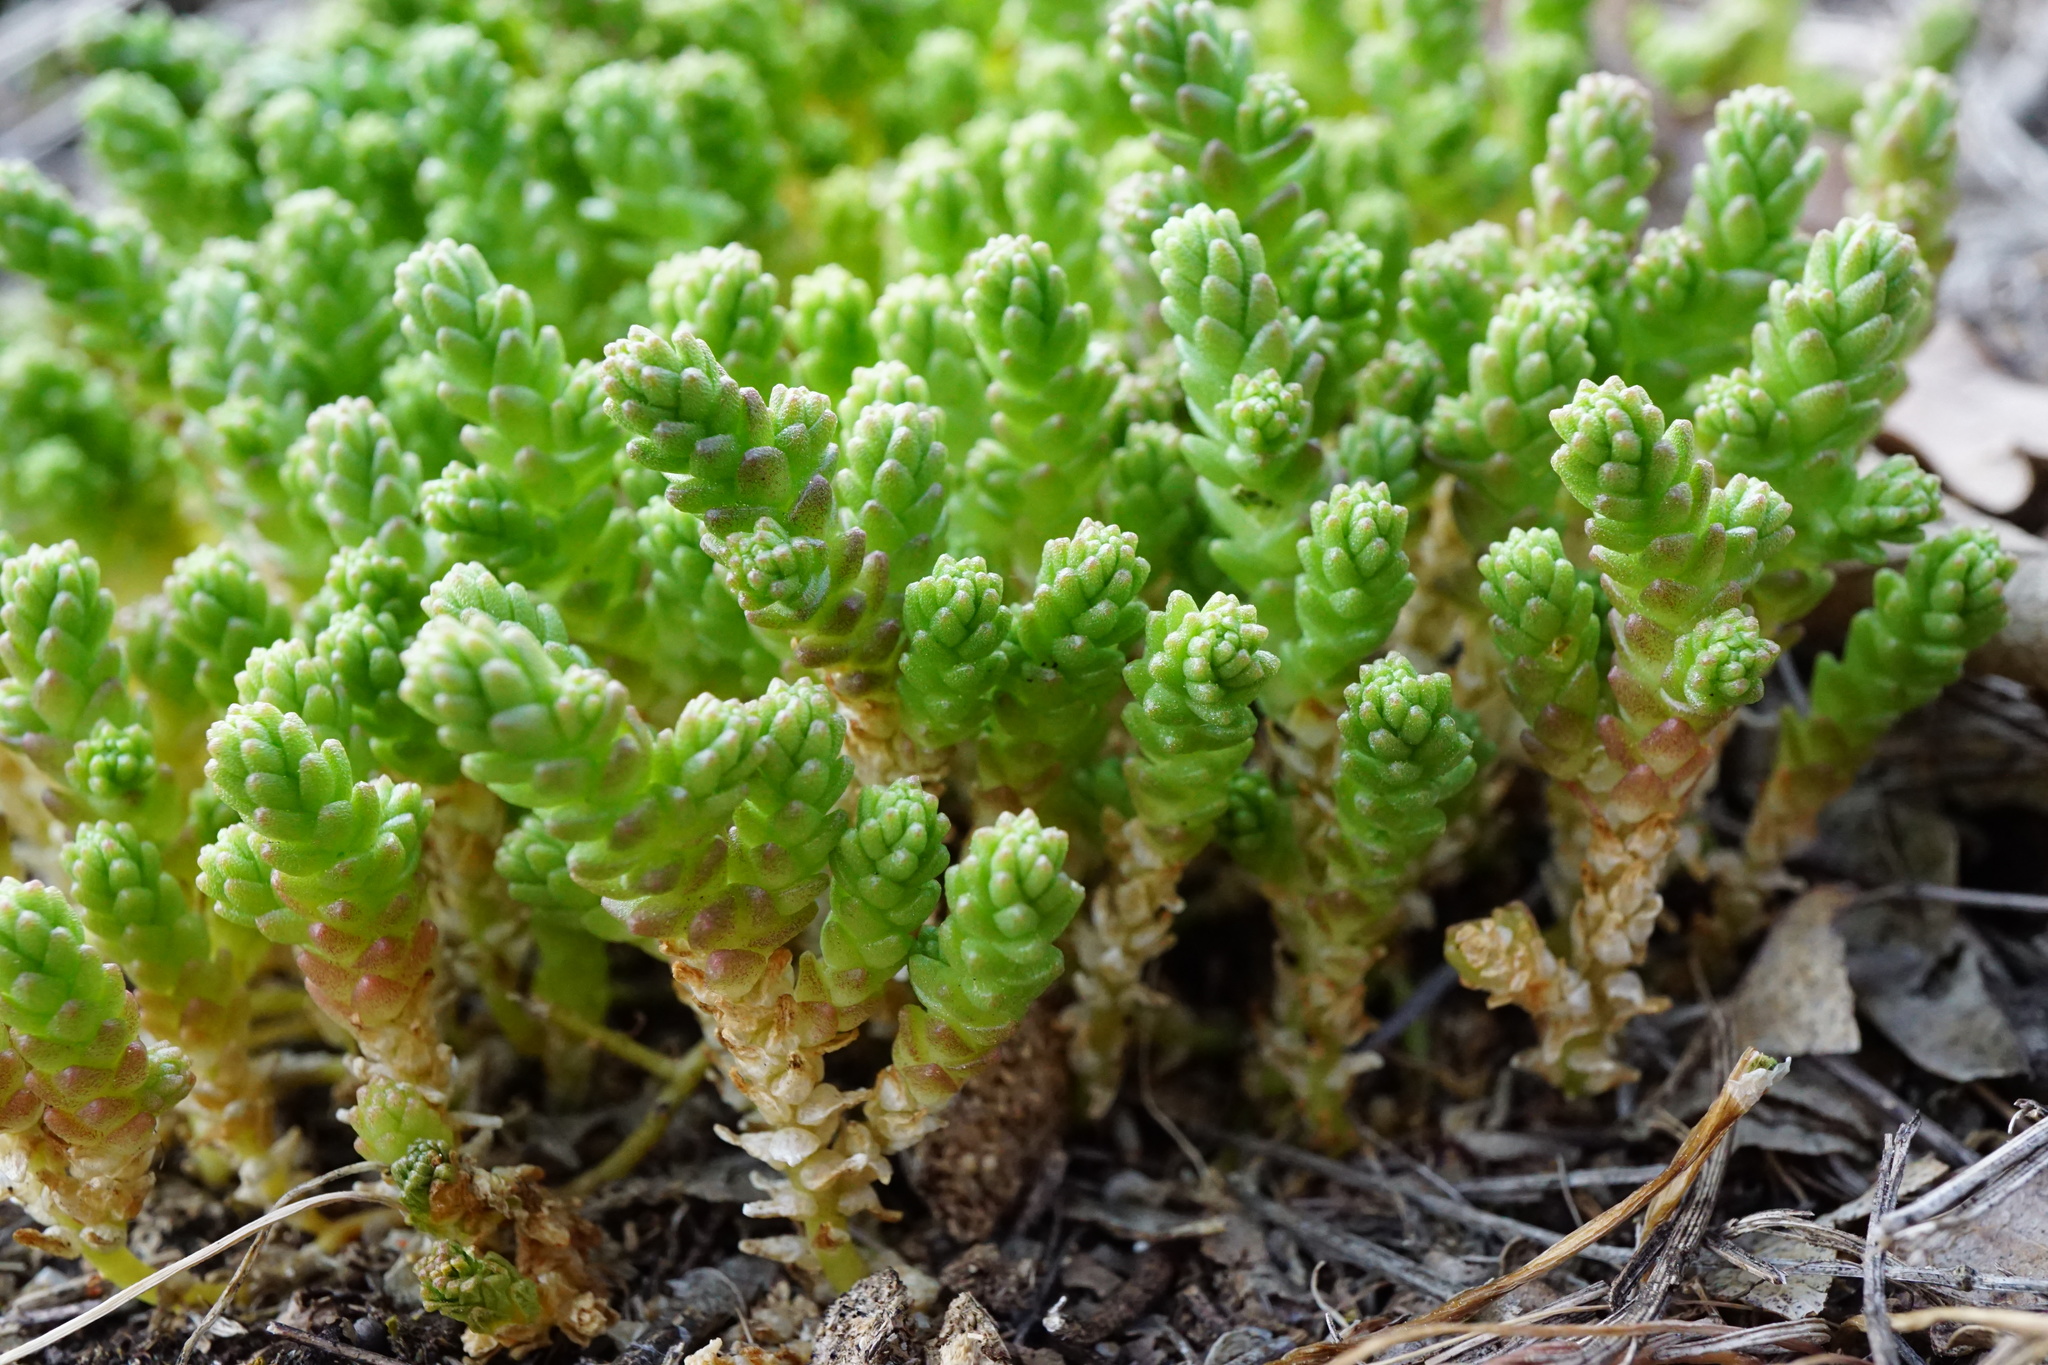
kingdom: Plantae
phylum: Tracheophyta
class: Magnoliopsida
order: Saxifragales
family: Crassulaceae
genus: Sedum
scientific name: Sedum acre
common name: Biting stonecrop
